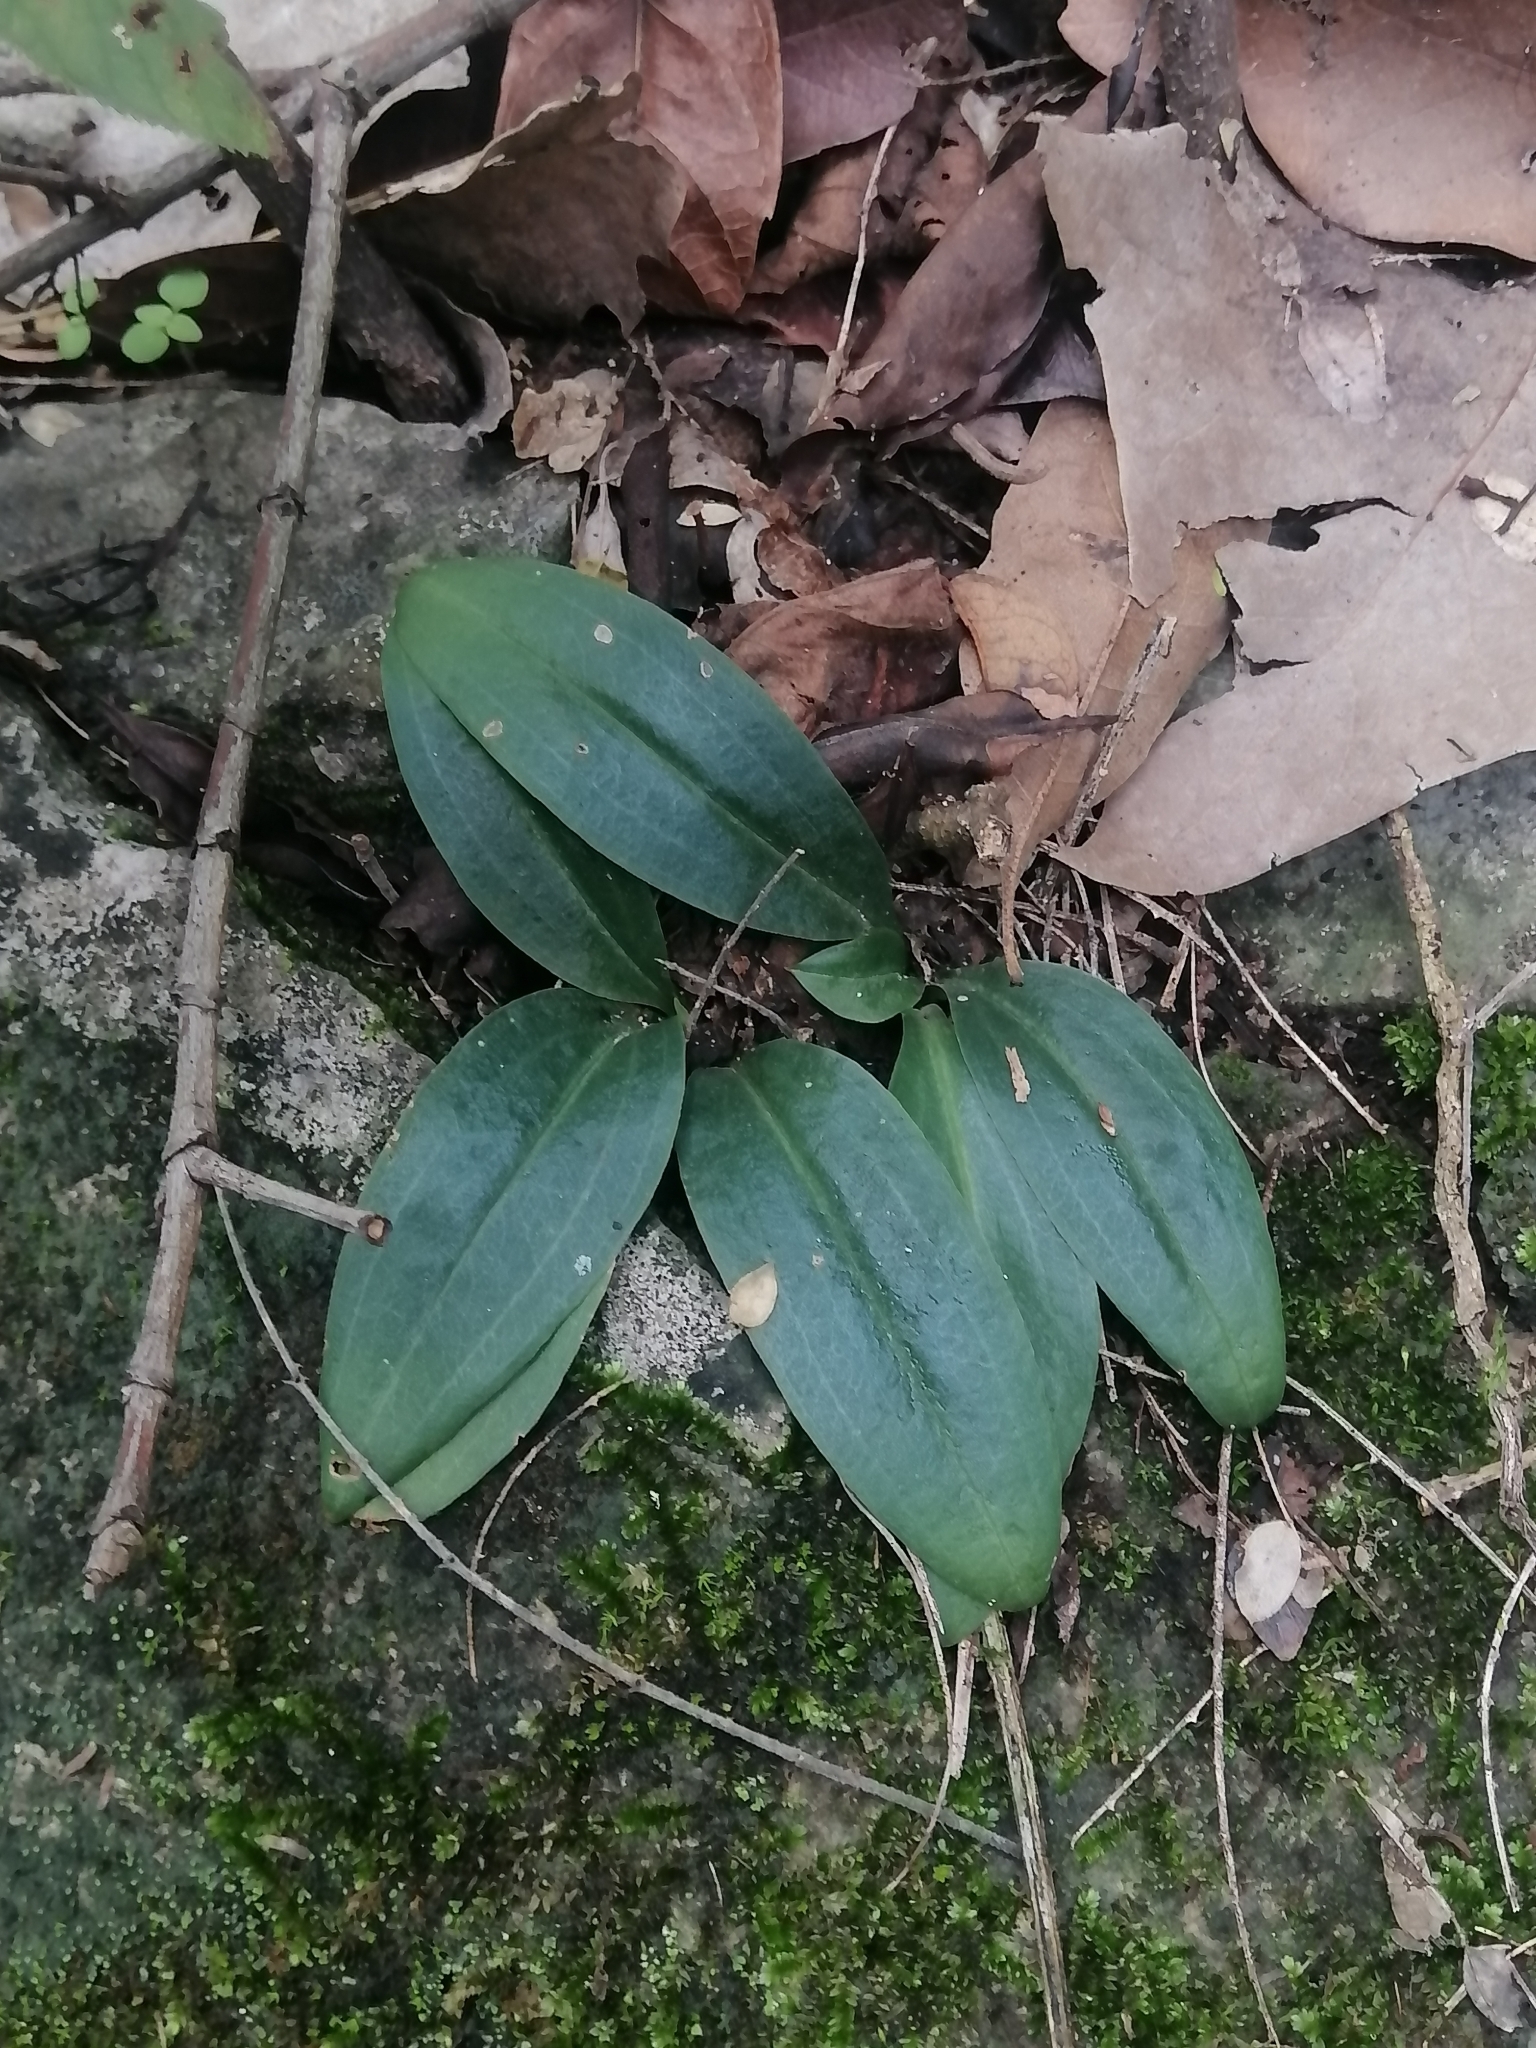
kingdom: Plantae
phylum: Tracheophyta
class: Liliopsida
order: Asparagales
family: Orchidaceae
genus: Mesadenus
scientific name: Mesadenus polyanthus
